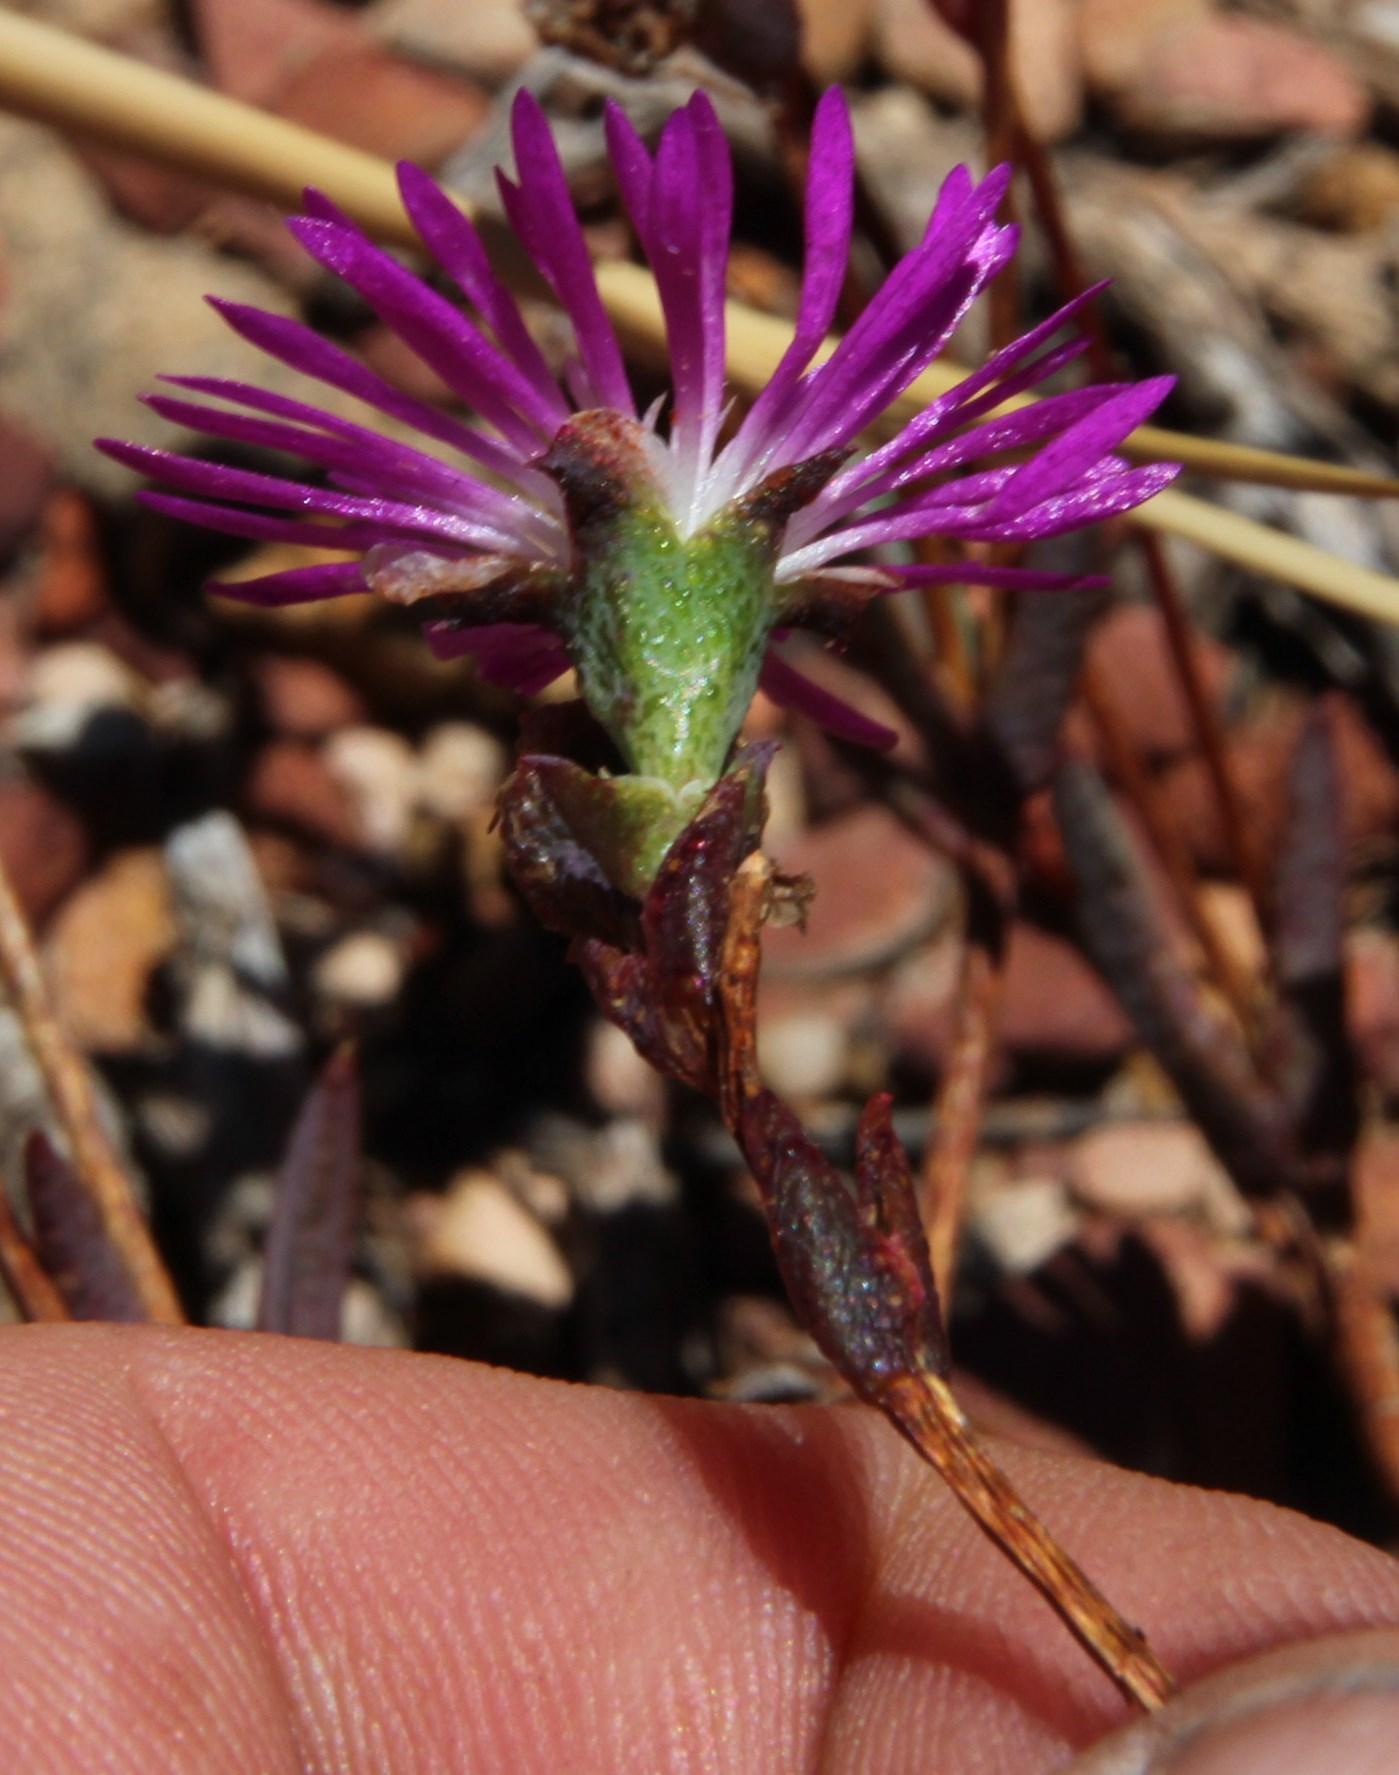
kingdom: Plantae
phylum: Tracheophyta
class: Magnoliopsida
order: Caryophyllales
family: Aizoaceae
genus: Erepsia
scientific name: Erepsia esterhuyseniae
